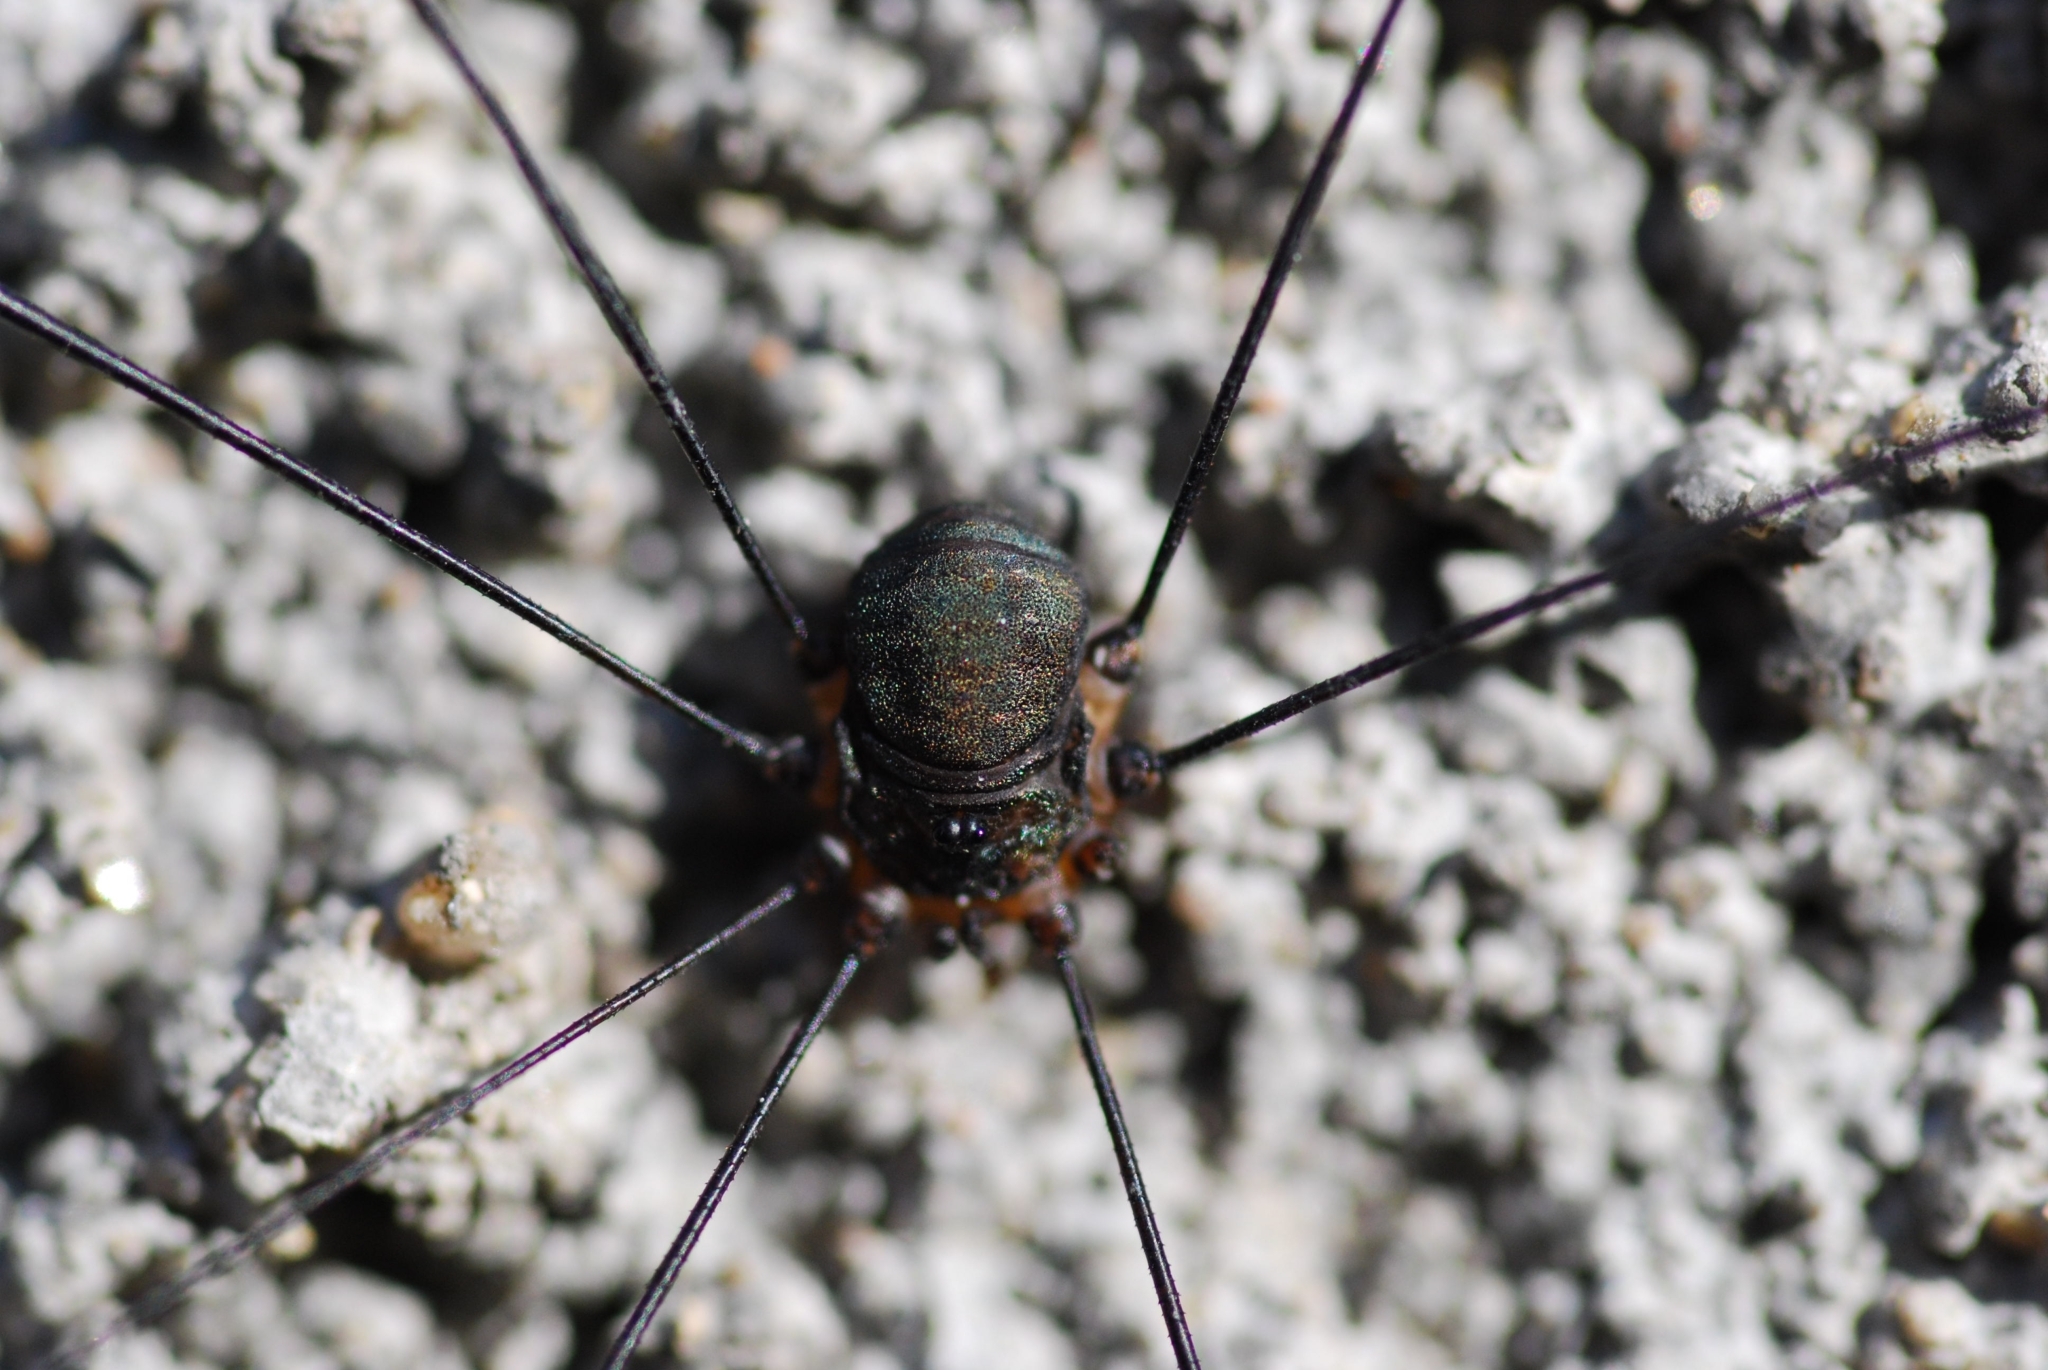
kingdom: Animalia
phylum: Arthropoda
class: Arachnida
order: Opiliones
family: Sclerosomatidae
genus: Leiobunum
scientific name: Leiobunum
